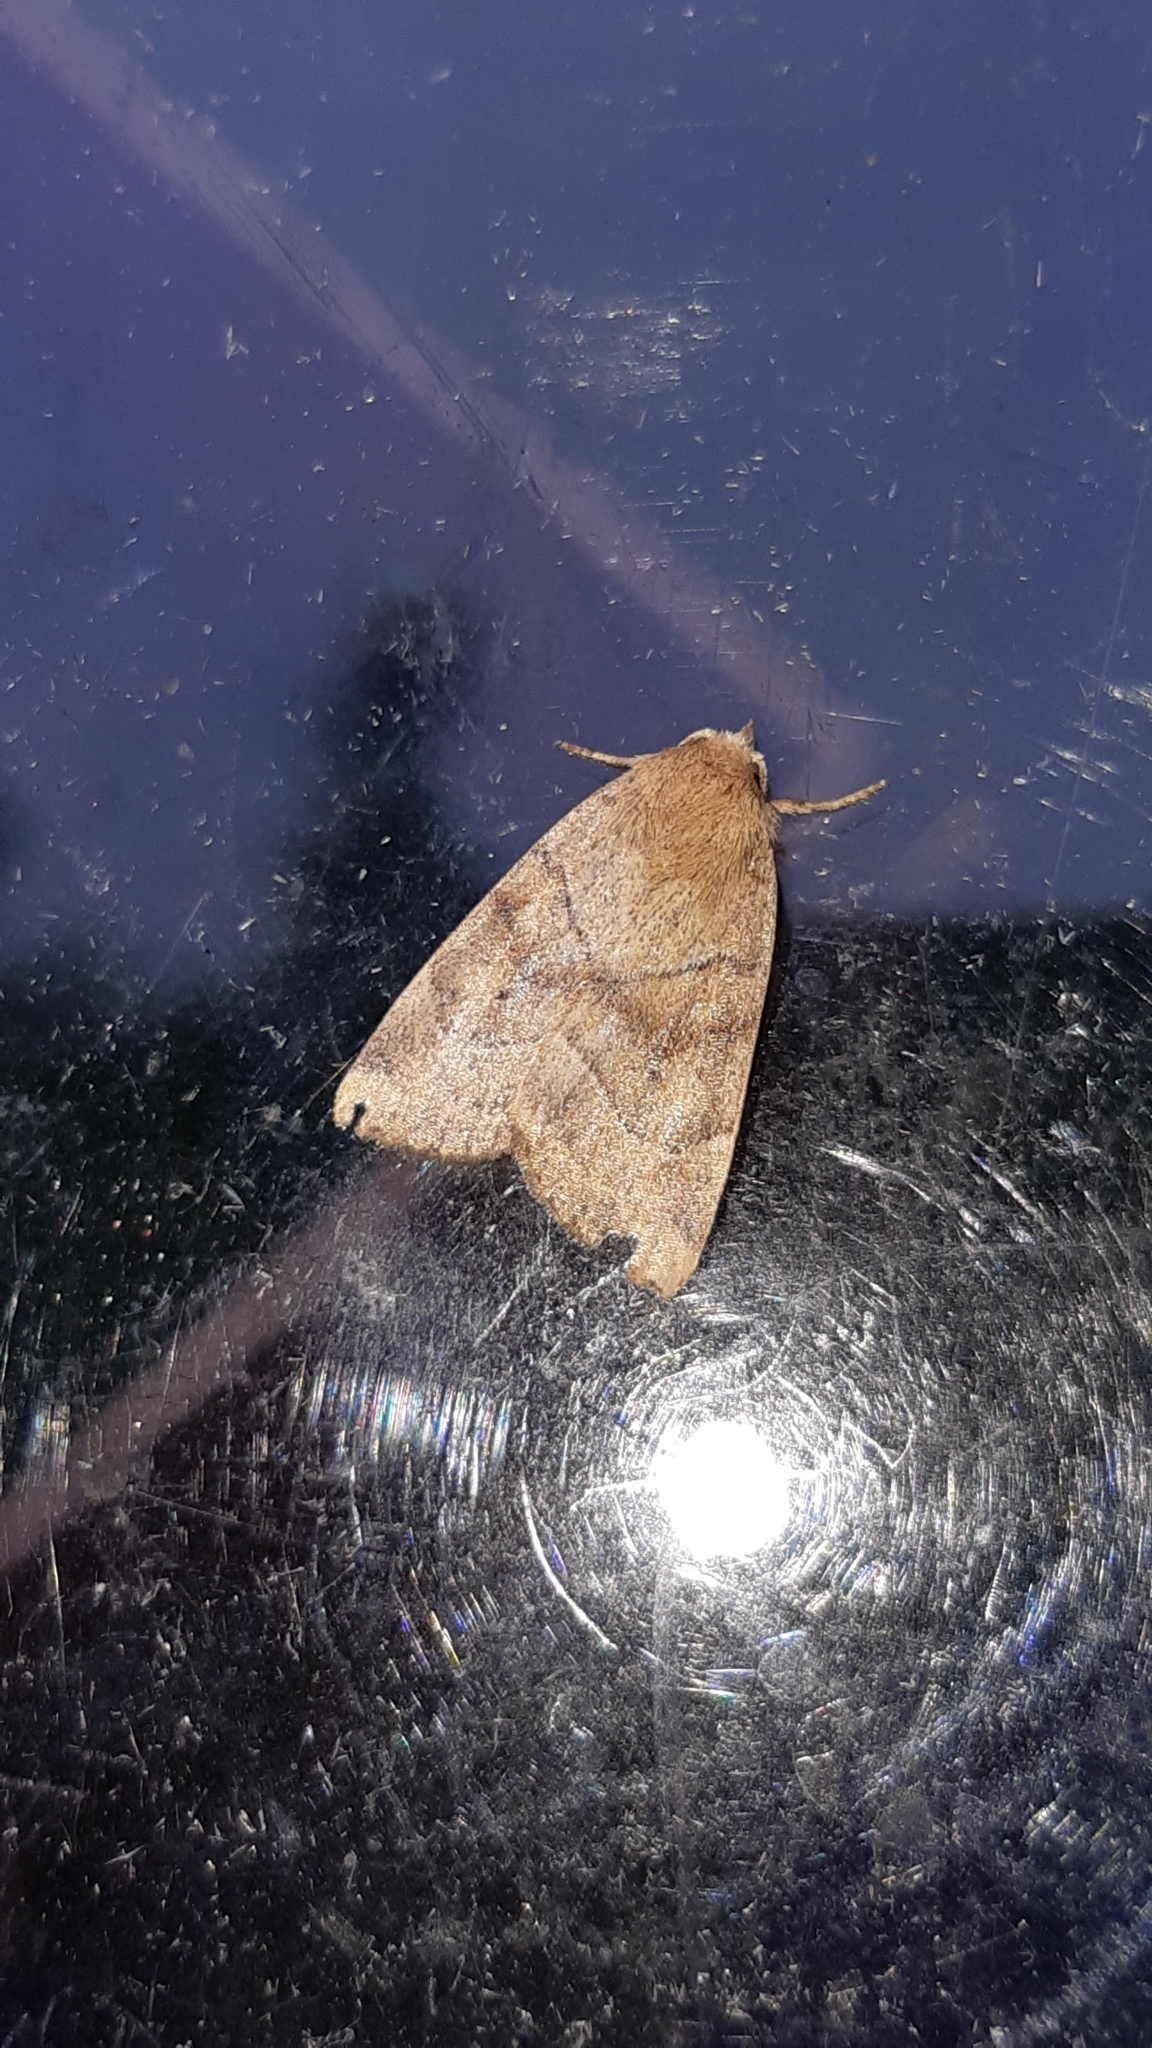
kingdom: Animalia
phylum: Arthropoda
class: Insecta
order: Lepidoptera
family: Noctuidae
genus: Cosmia
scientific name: Cosmia trapezina
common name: Dun-bar
